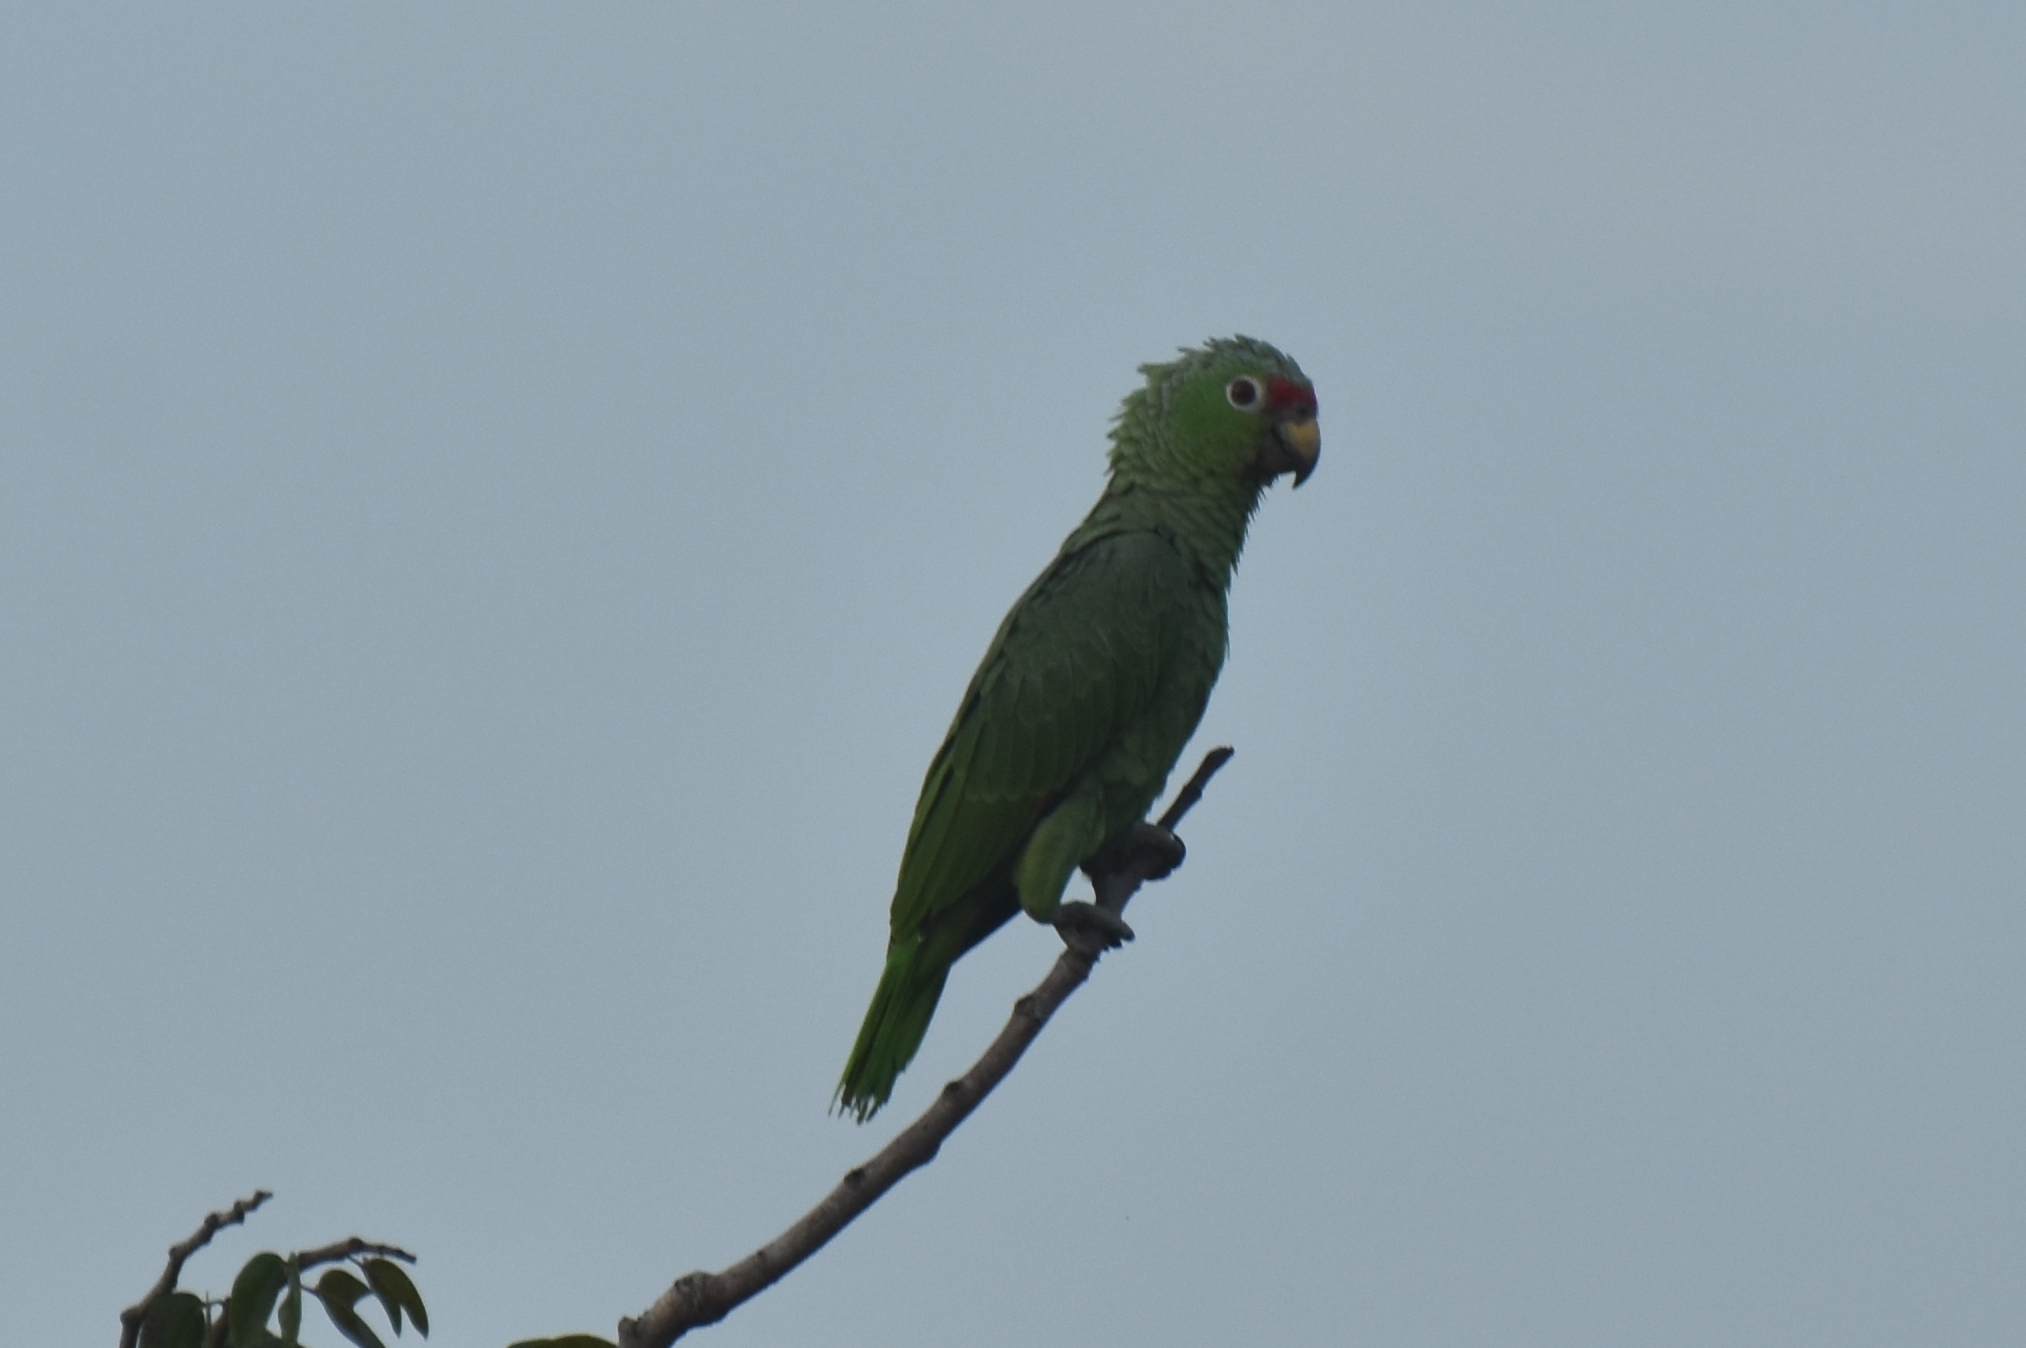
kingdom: Animalia
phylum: Chordata
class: Aves
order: Psittaciformes
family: Psittacidae
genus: Amazona
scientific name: Amazona autumnalis
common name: Red-lored amazon
